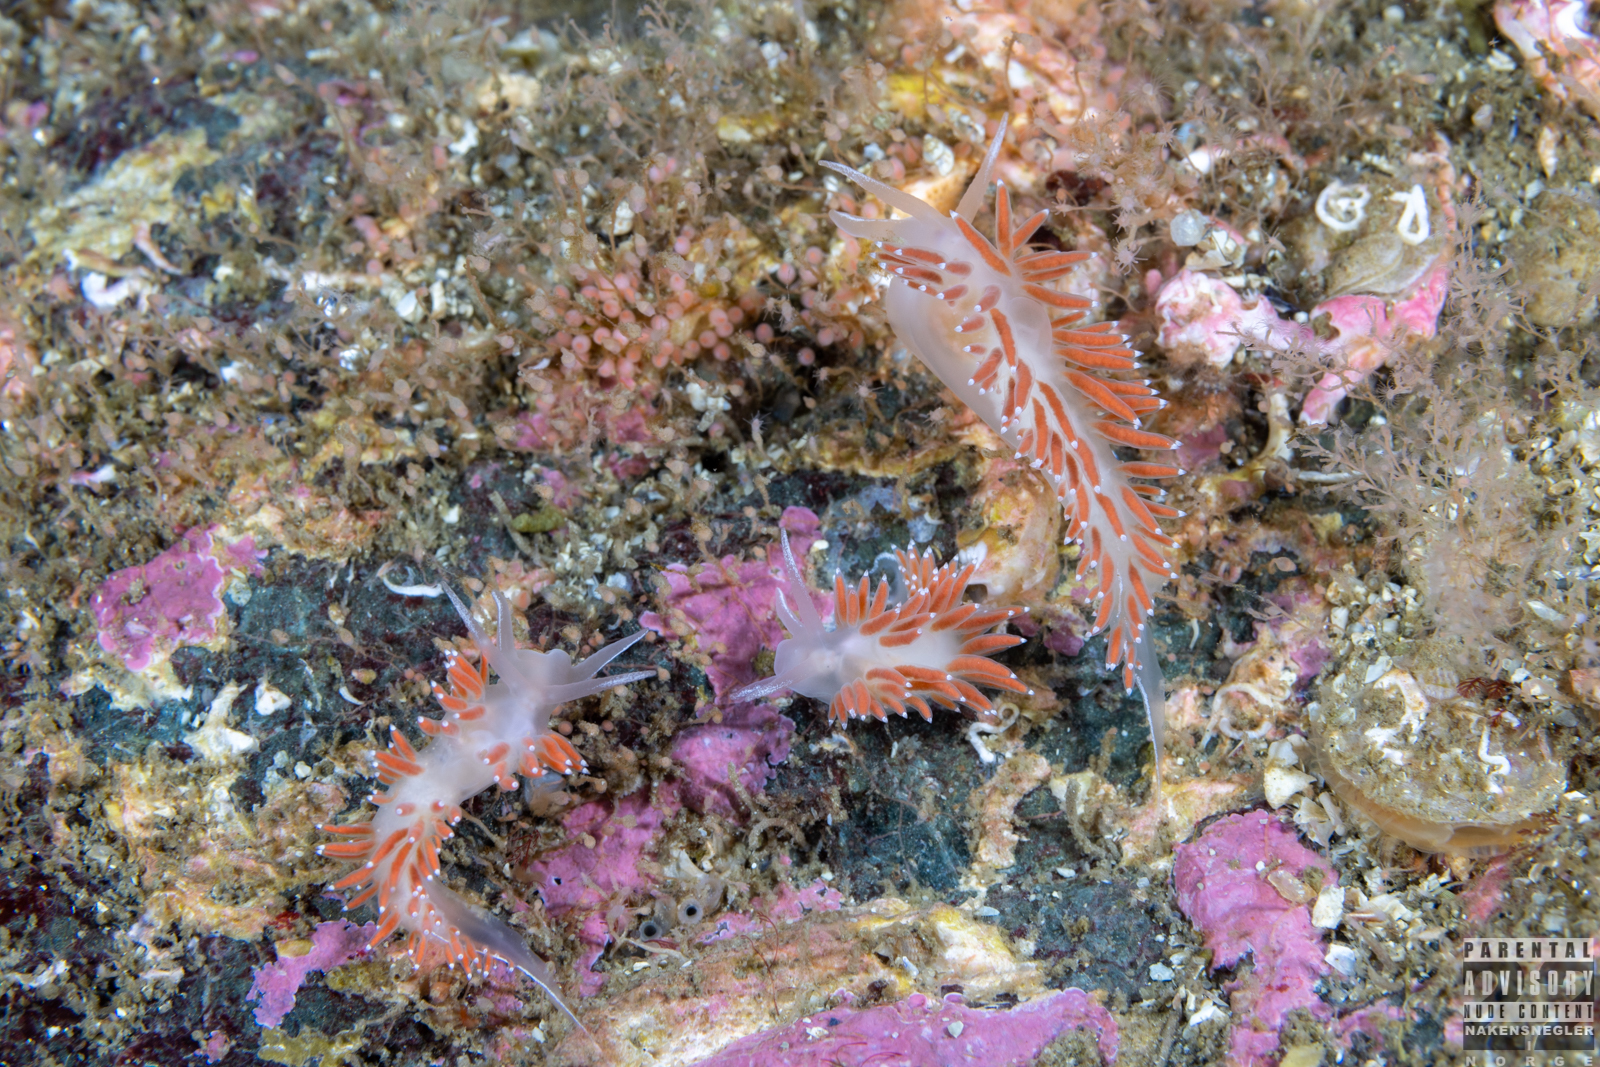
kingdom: Animalia
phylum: Mollusca
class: Gastropoda
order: Nudibranchia
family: Coryphellidae
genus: Coryphella
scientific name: Coryphella verrucosa
